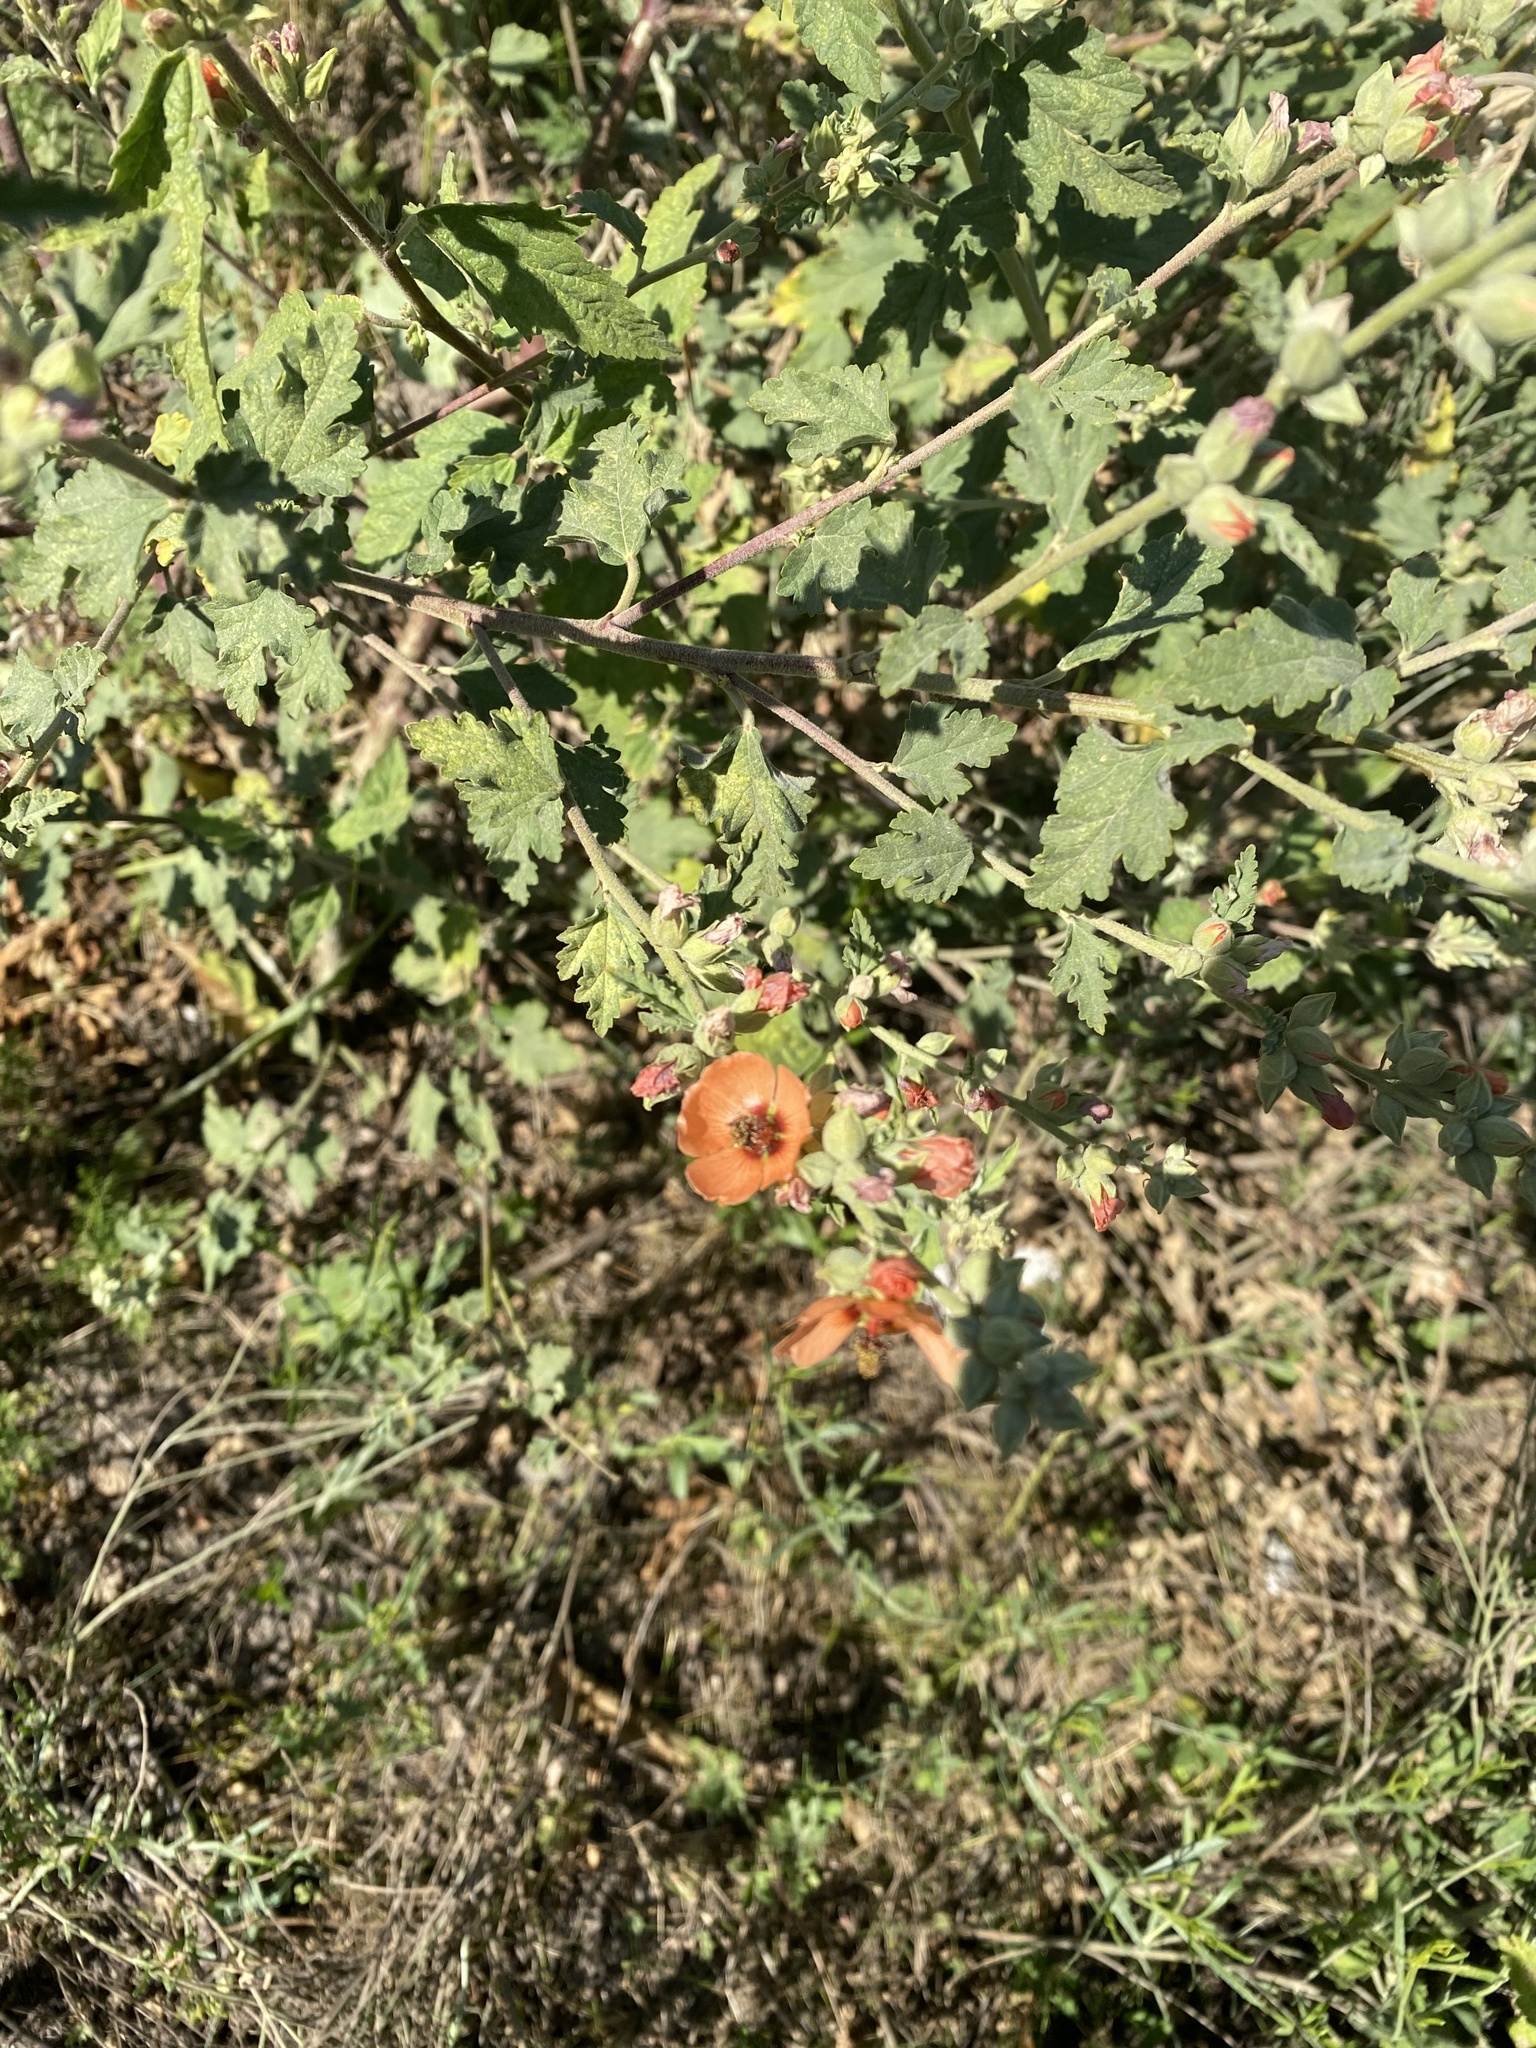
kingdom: Plantae
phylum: Tracheophyta
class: Magnoliopsida
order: Malvales
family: Malvaceae
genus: Sphaeralcea
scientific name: Sphaeralcea bonariensis
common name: Latin globemallow
